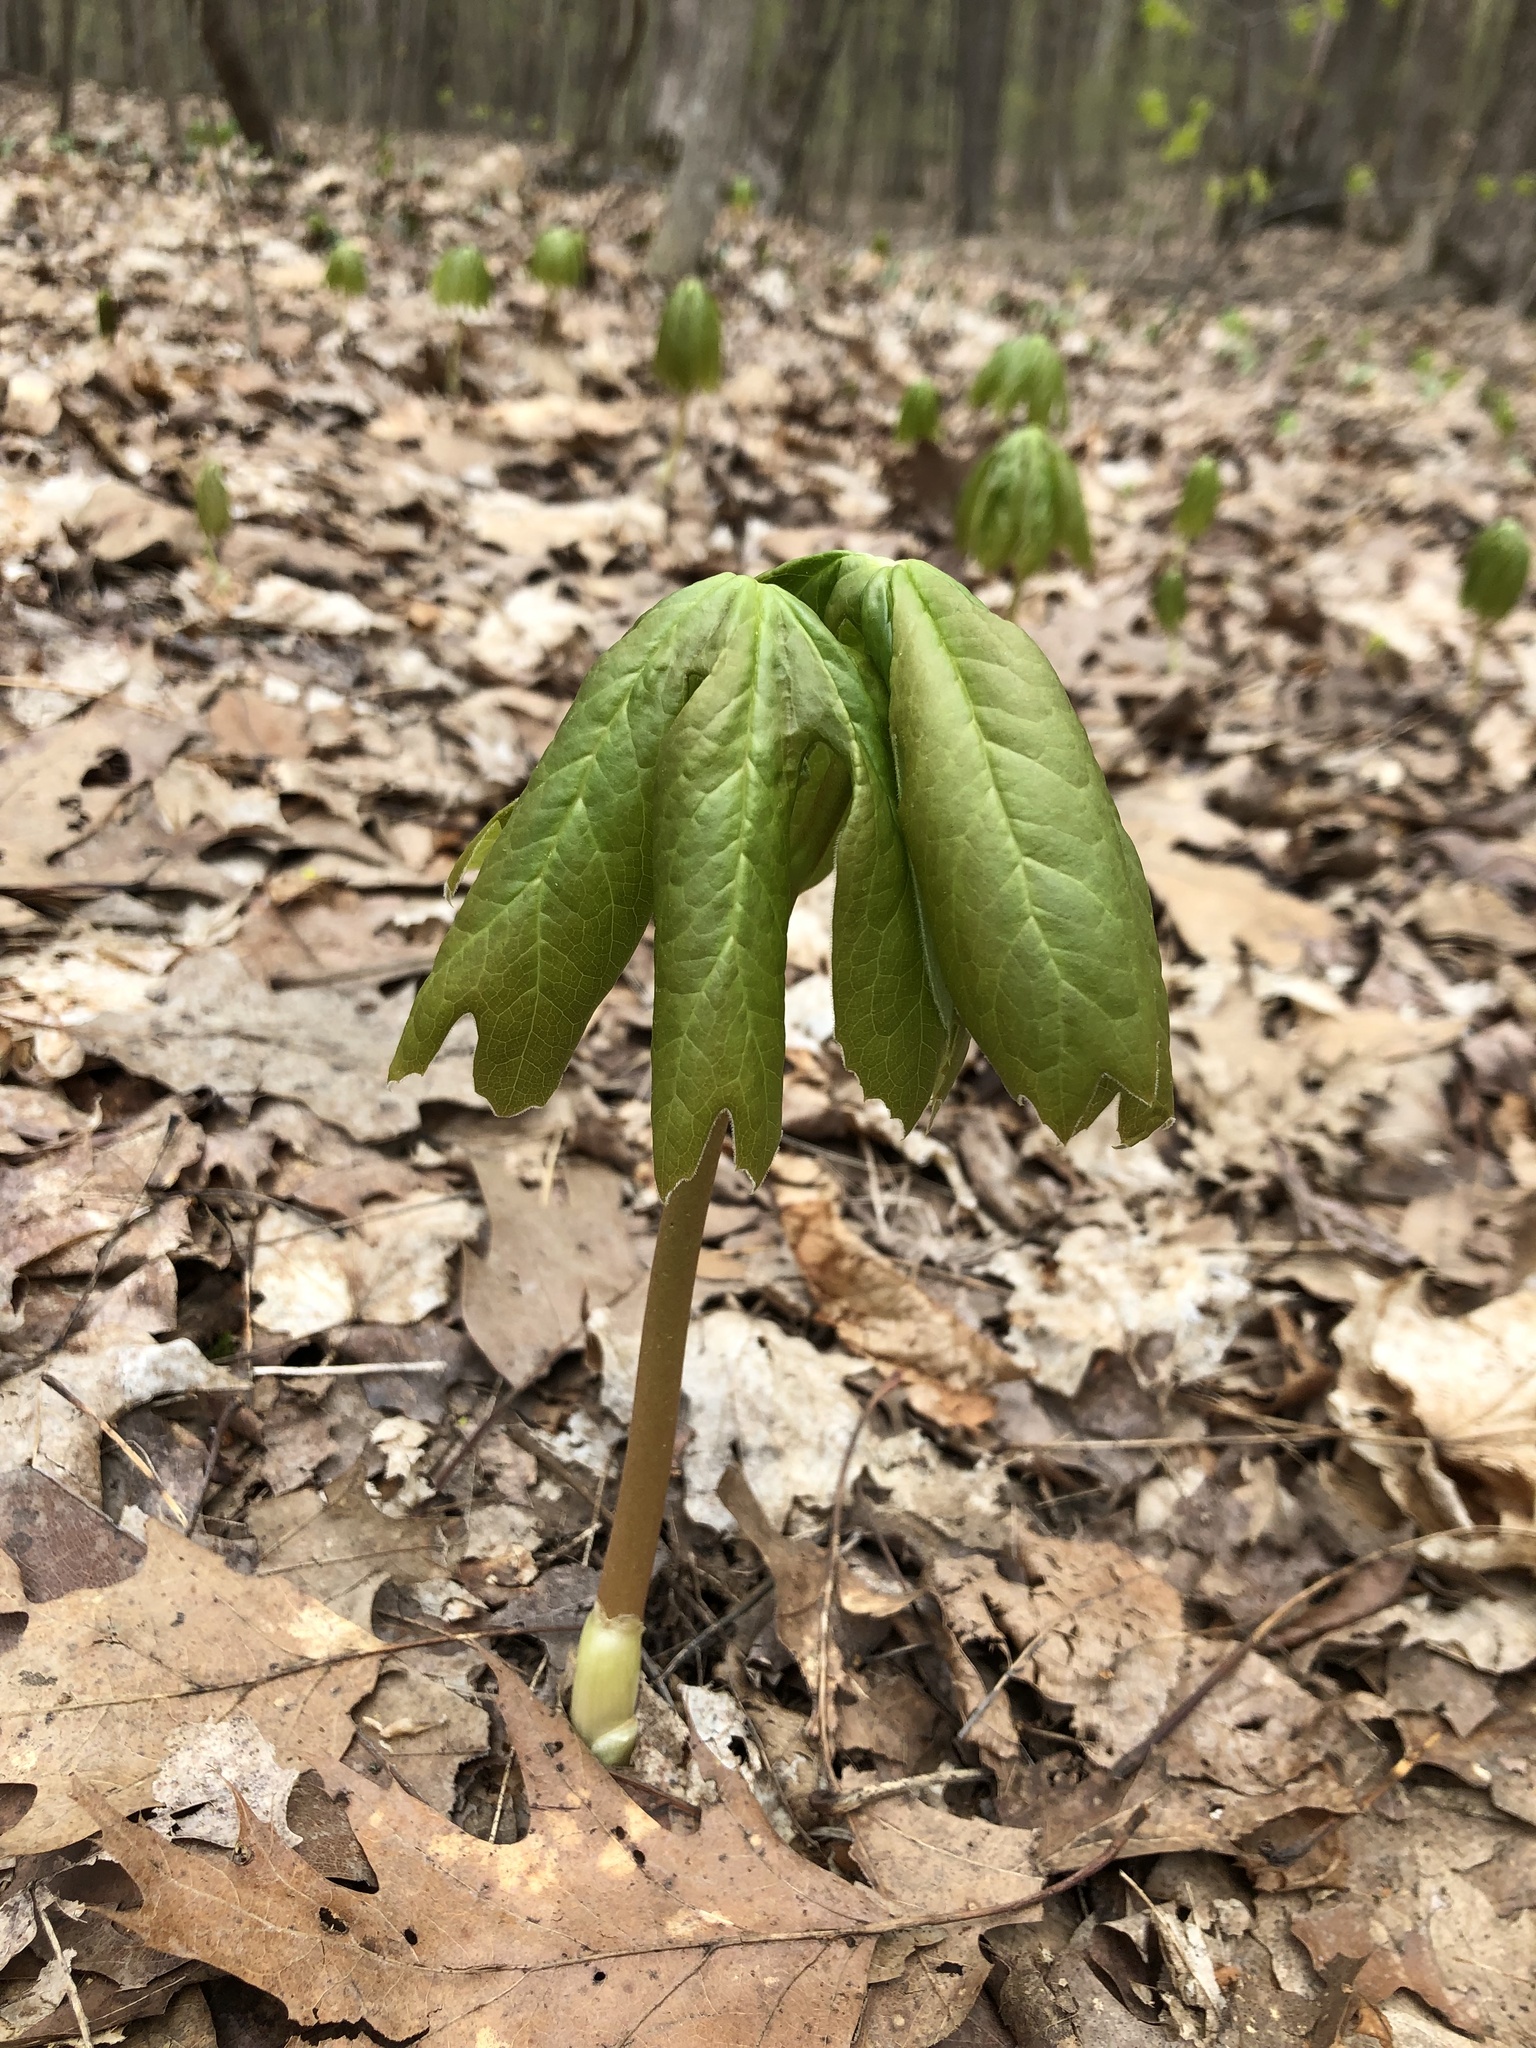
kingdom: Plantae
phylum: Tracheophyta
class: Magnoliopsida
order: Ranunculales
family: Berberidaceae
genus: Podophyllum
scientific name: Podophyllum peltatum
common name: Wild mandrake
